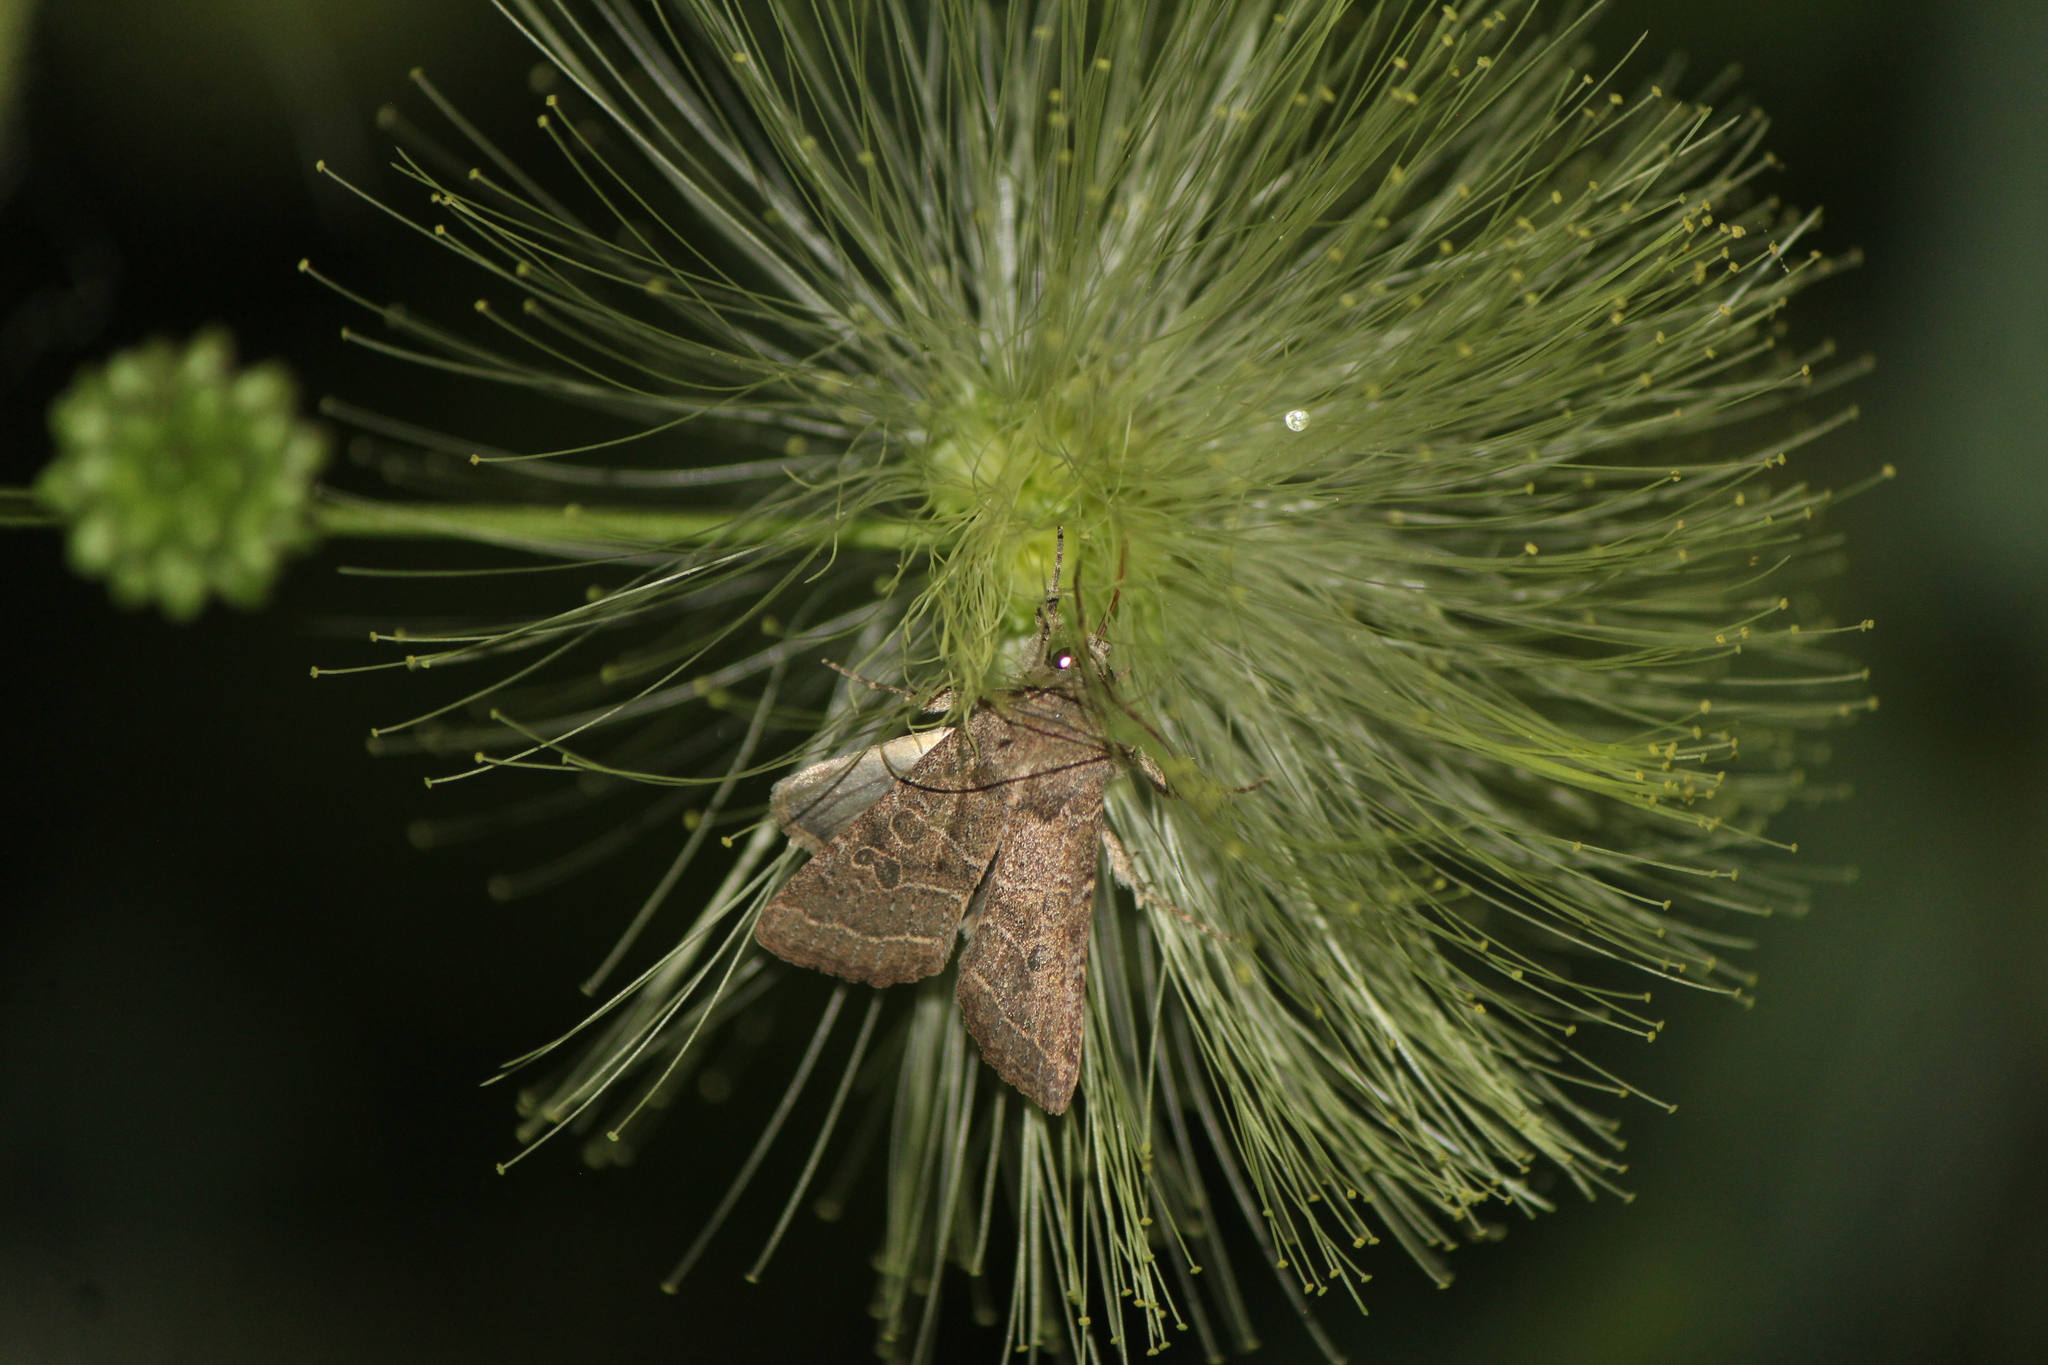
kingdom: Animalia
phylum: Arthropoda
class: Insecta
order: Lepidoptera
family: Noctuidae
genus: Orthodes
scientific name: Orthodes majuscula
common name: Rustic quaker
